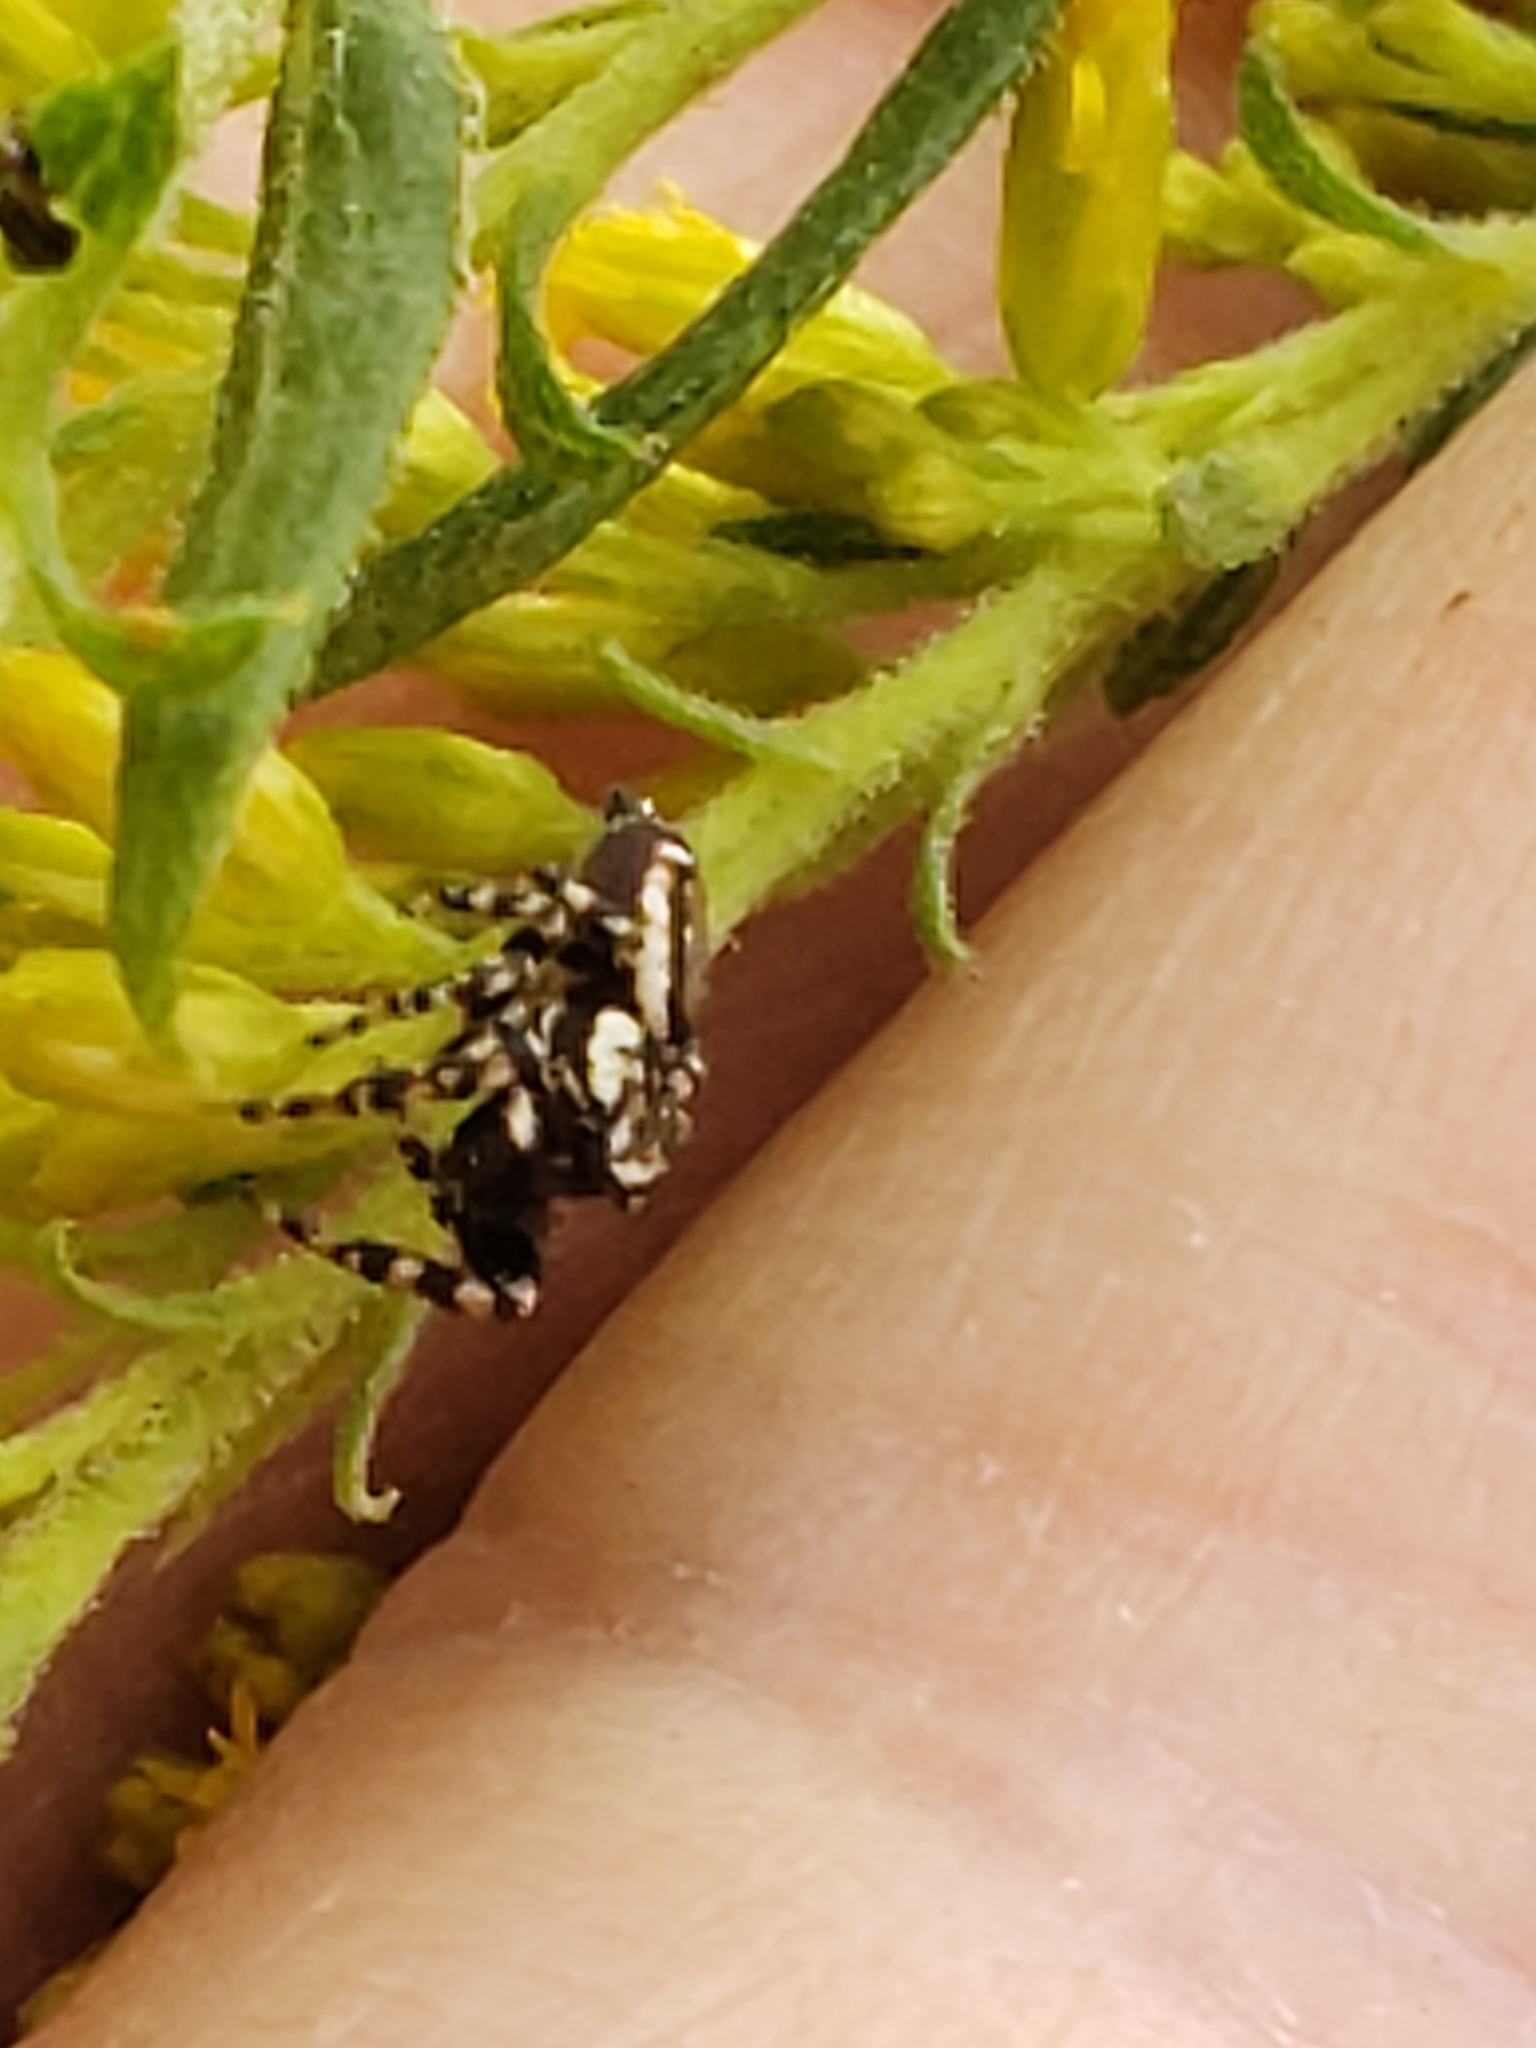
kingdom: Animalia
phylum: Arthropoda
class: Arachnida
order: Araneae
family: Salticidae
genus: Pelegrina
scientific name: Pelegrina galathea
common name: Jumping spiders
